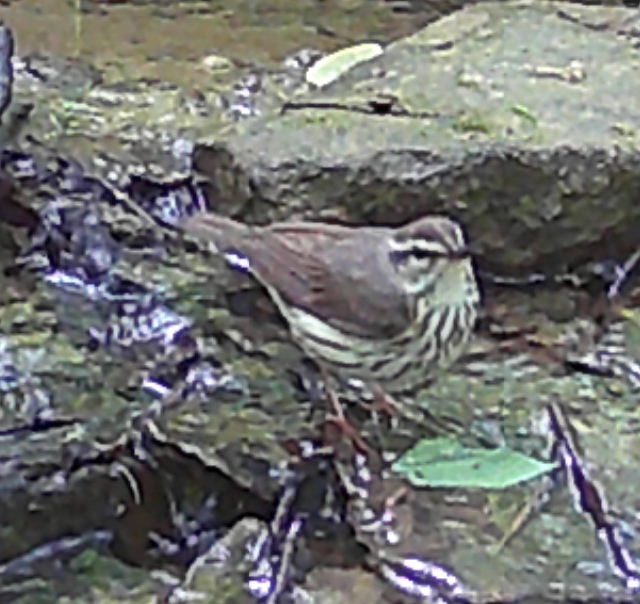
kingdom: Animalia
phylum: Chordata
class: Aves
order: Passeriformes
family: Parulidae
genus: Parkesia
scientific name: Parkesia motacilla
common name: Louisiana waterthrush
